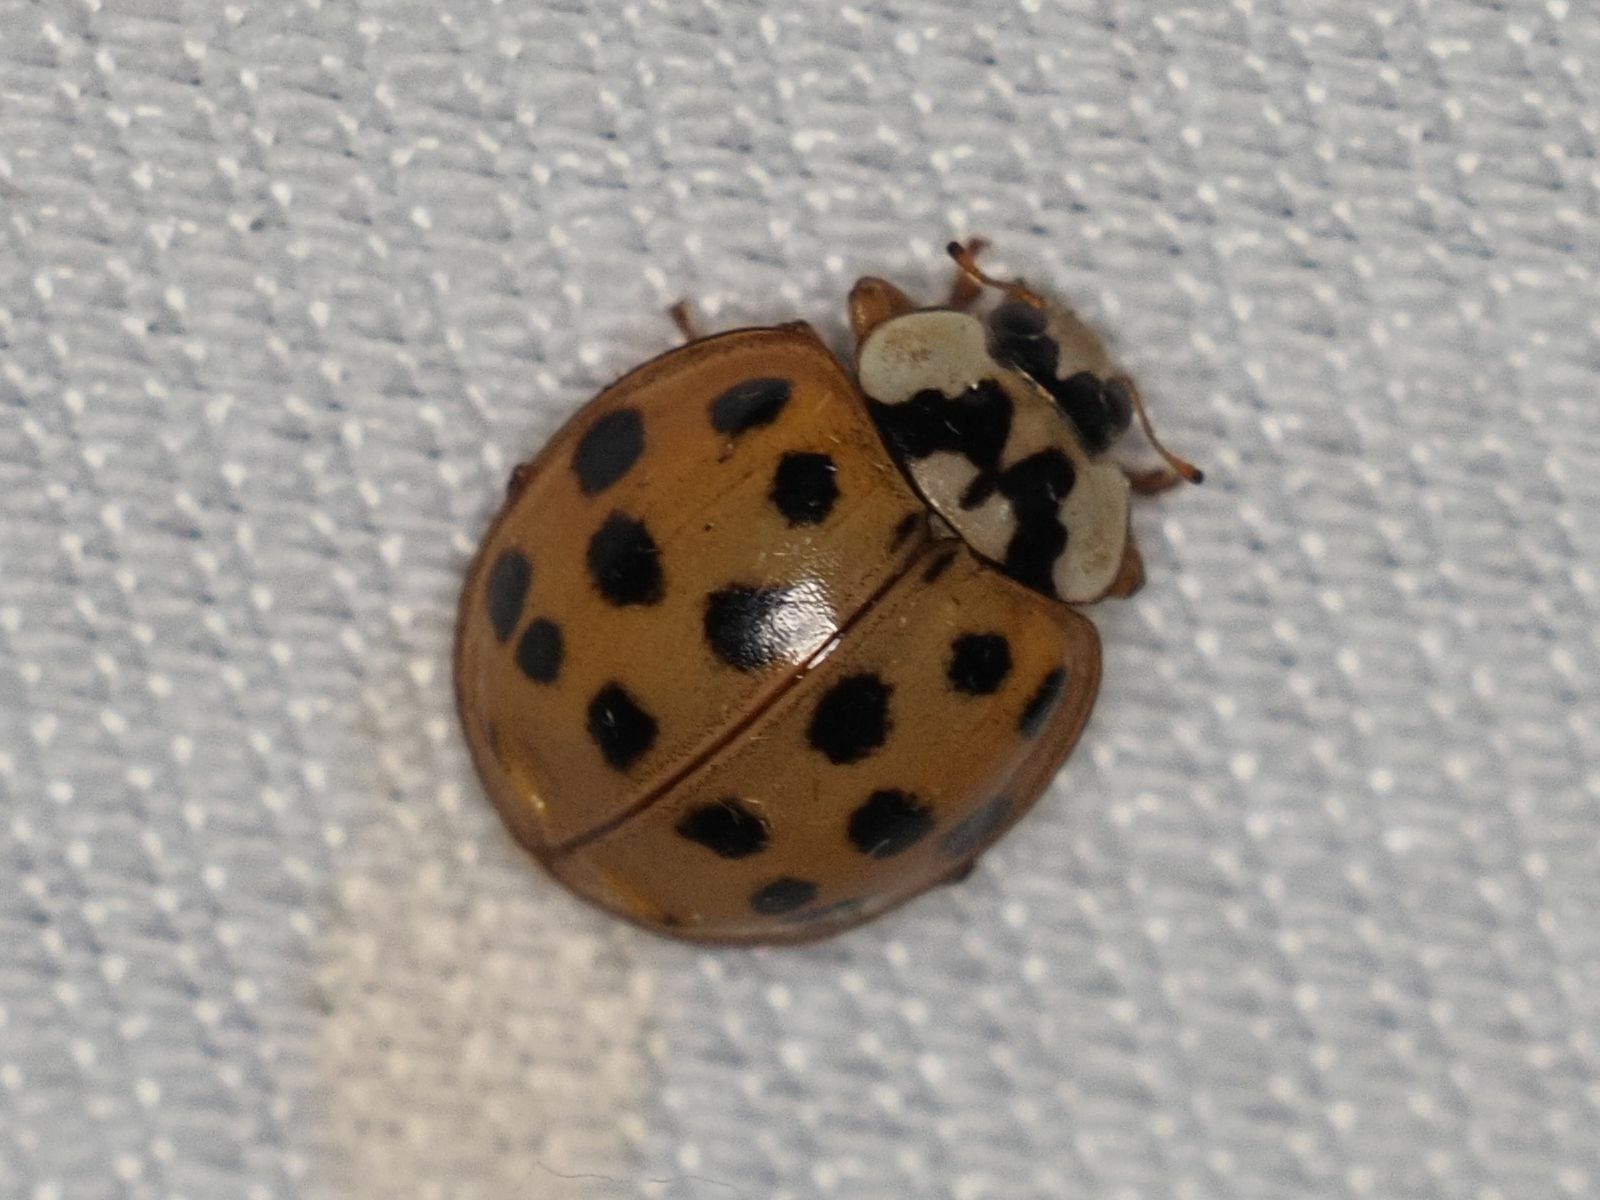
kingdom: Animalia
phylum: Arthropoda
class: Insecta
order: Coleoptera
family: Coccinellidae
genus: Harmonia
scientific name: Harmonia axyridis
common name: Harlequin ladybird
